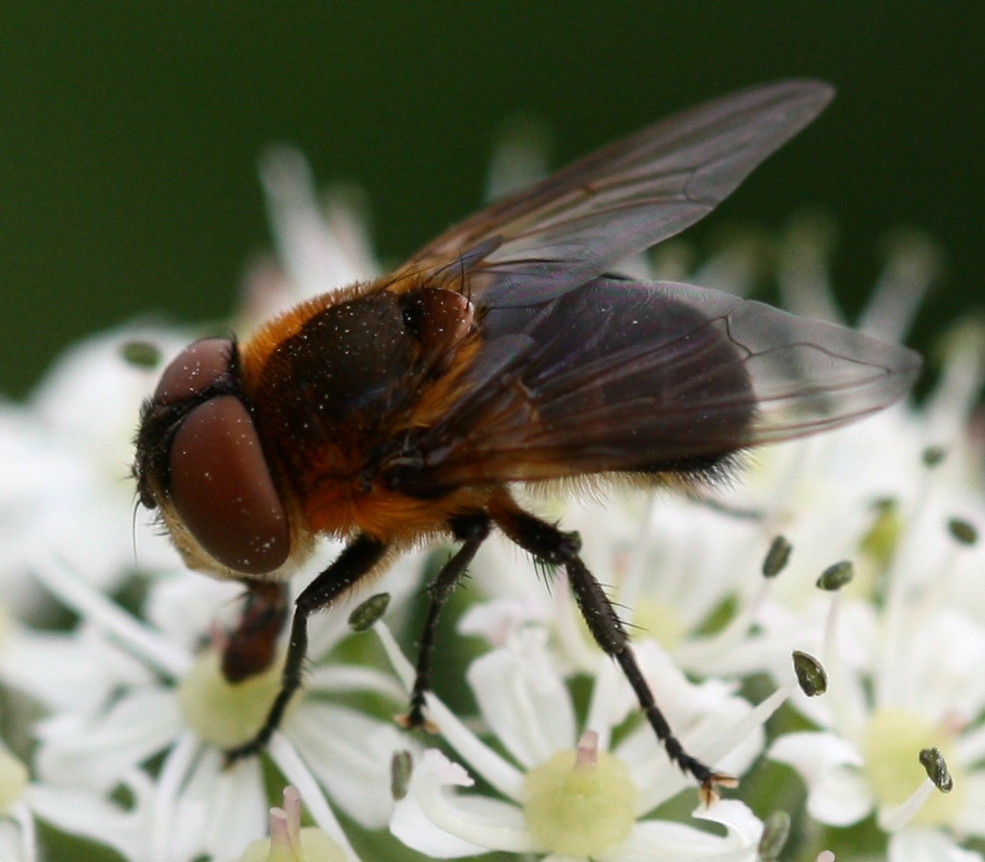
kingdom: Animalia
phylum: Arthropoda
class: Insecta
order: Diptera
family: Tachinidae
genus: Phasia
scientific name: Phasia hemiptera
